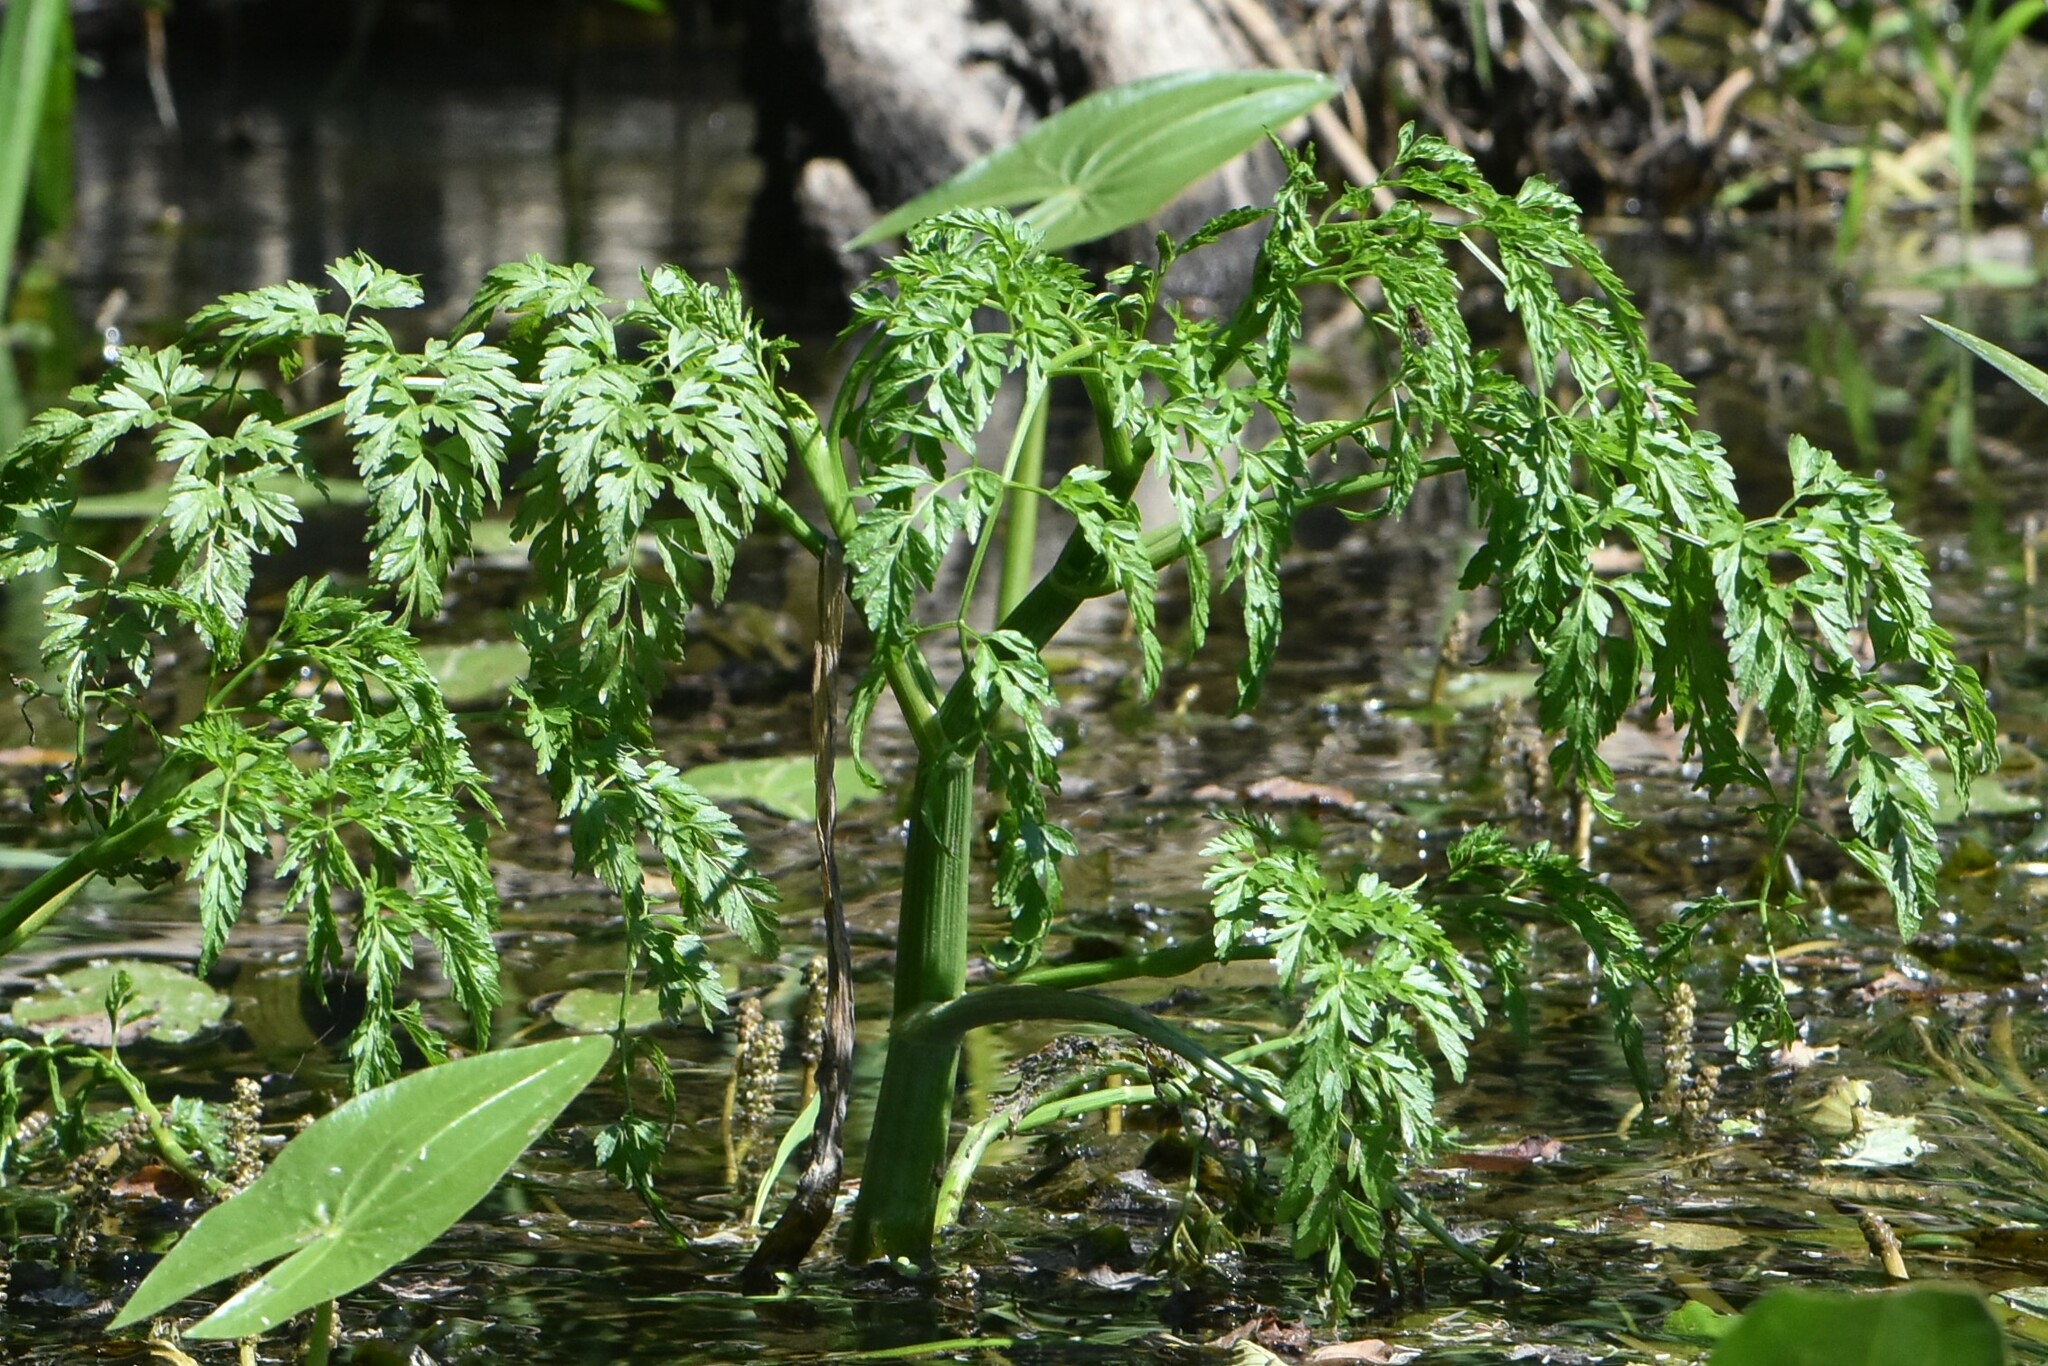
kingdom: Plantae
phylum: Tracheophyta
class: Magnoliopsida
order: Apiales
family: Apiaceae
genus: Oenanthe
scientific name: Oenanthe aquatica
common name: Fine-leaved water-dropwort
